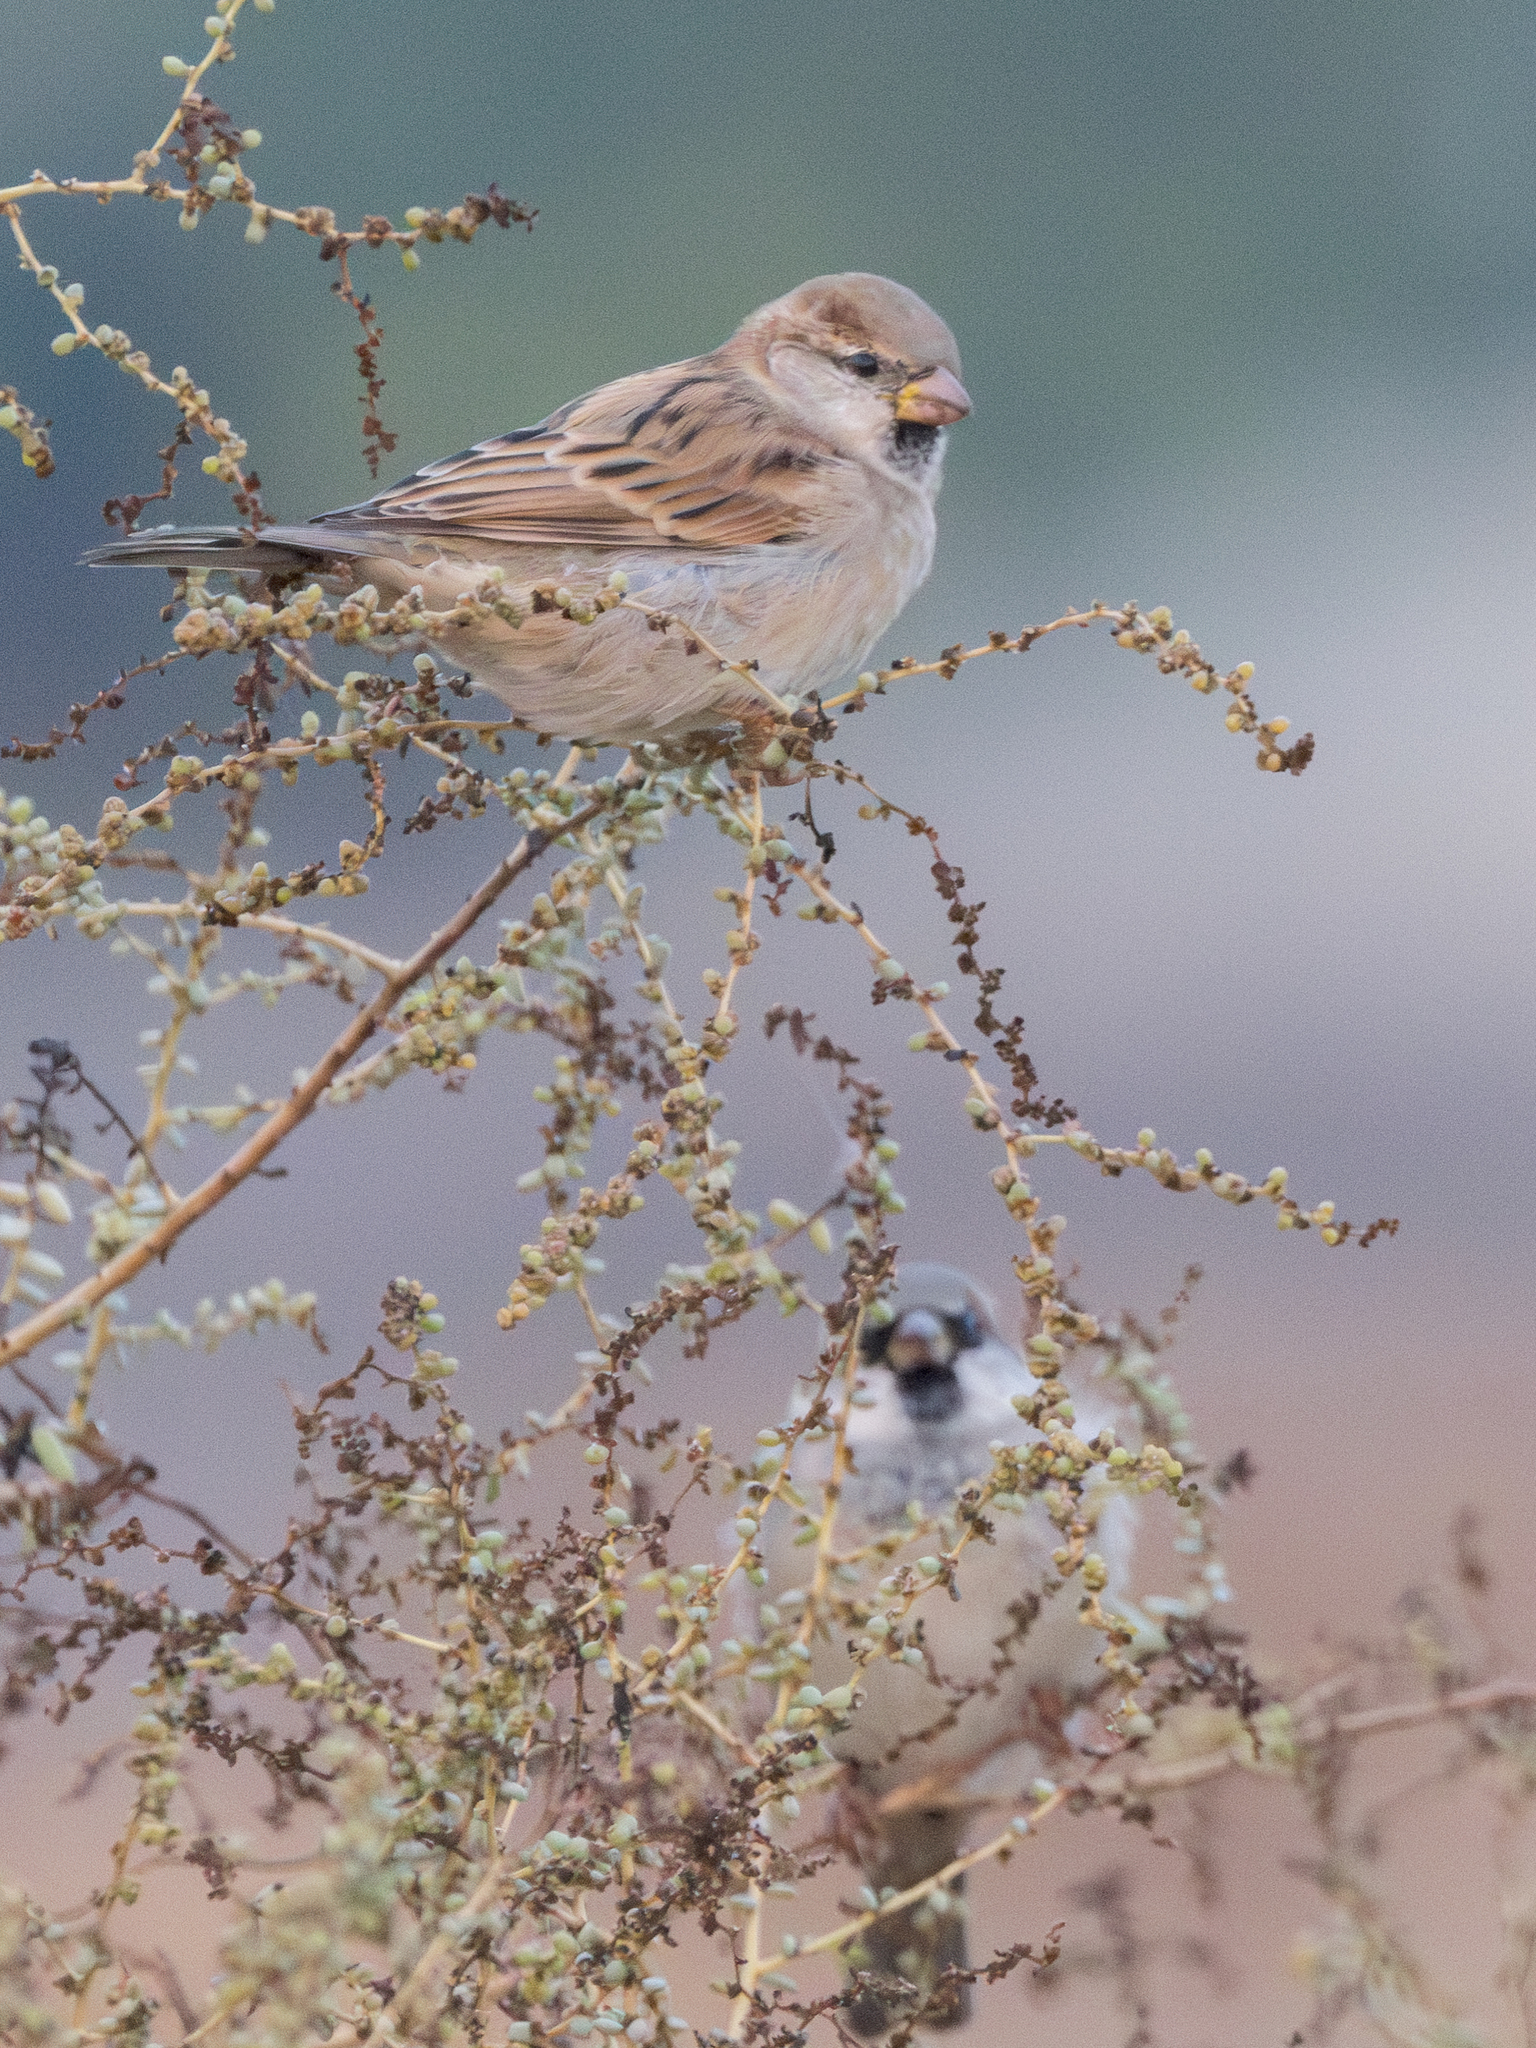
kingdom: Animalia
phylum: Chordata
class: Aves
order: Passeriformes
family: Passeridae
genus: Passer
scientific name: Passer domesticus
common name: House sparrow
